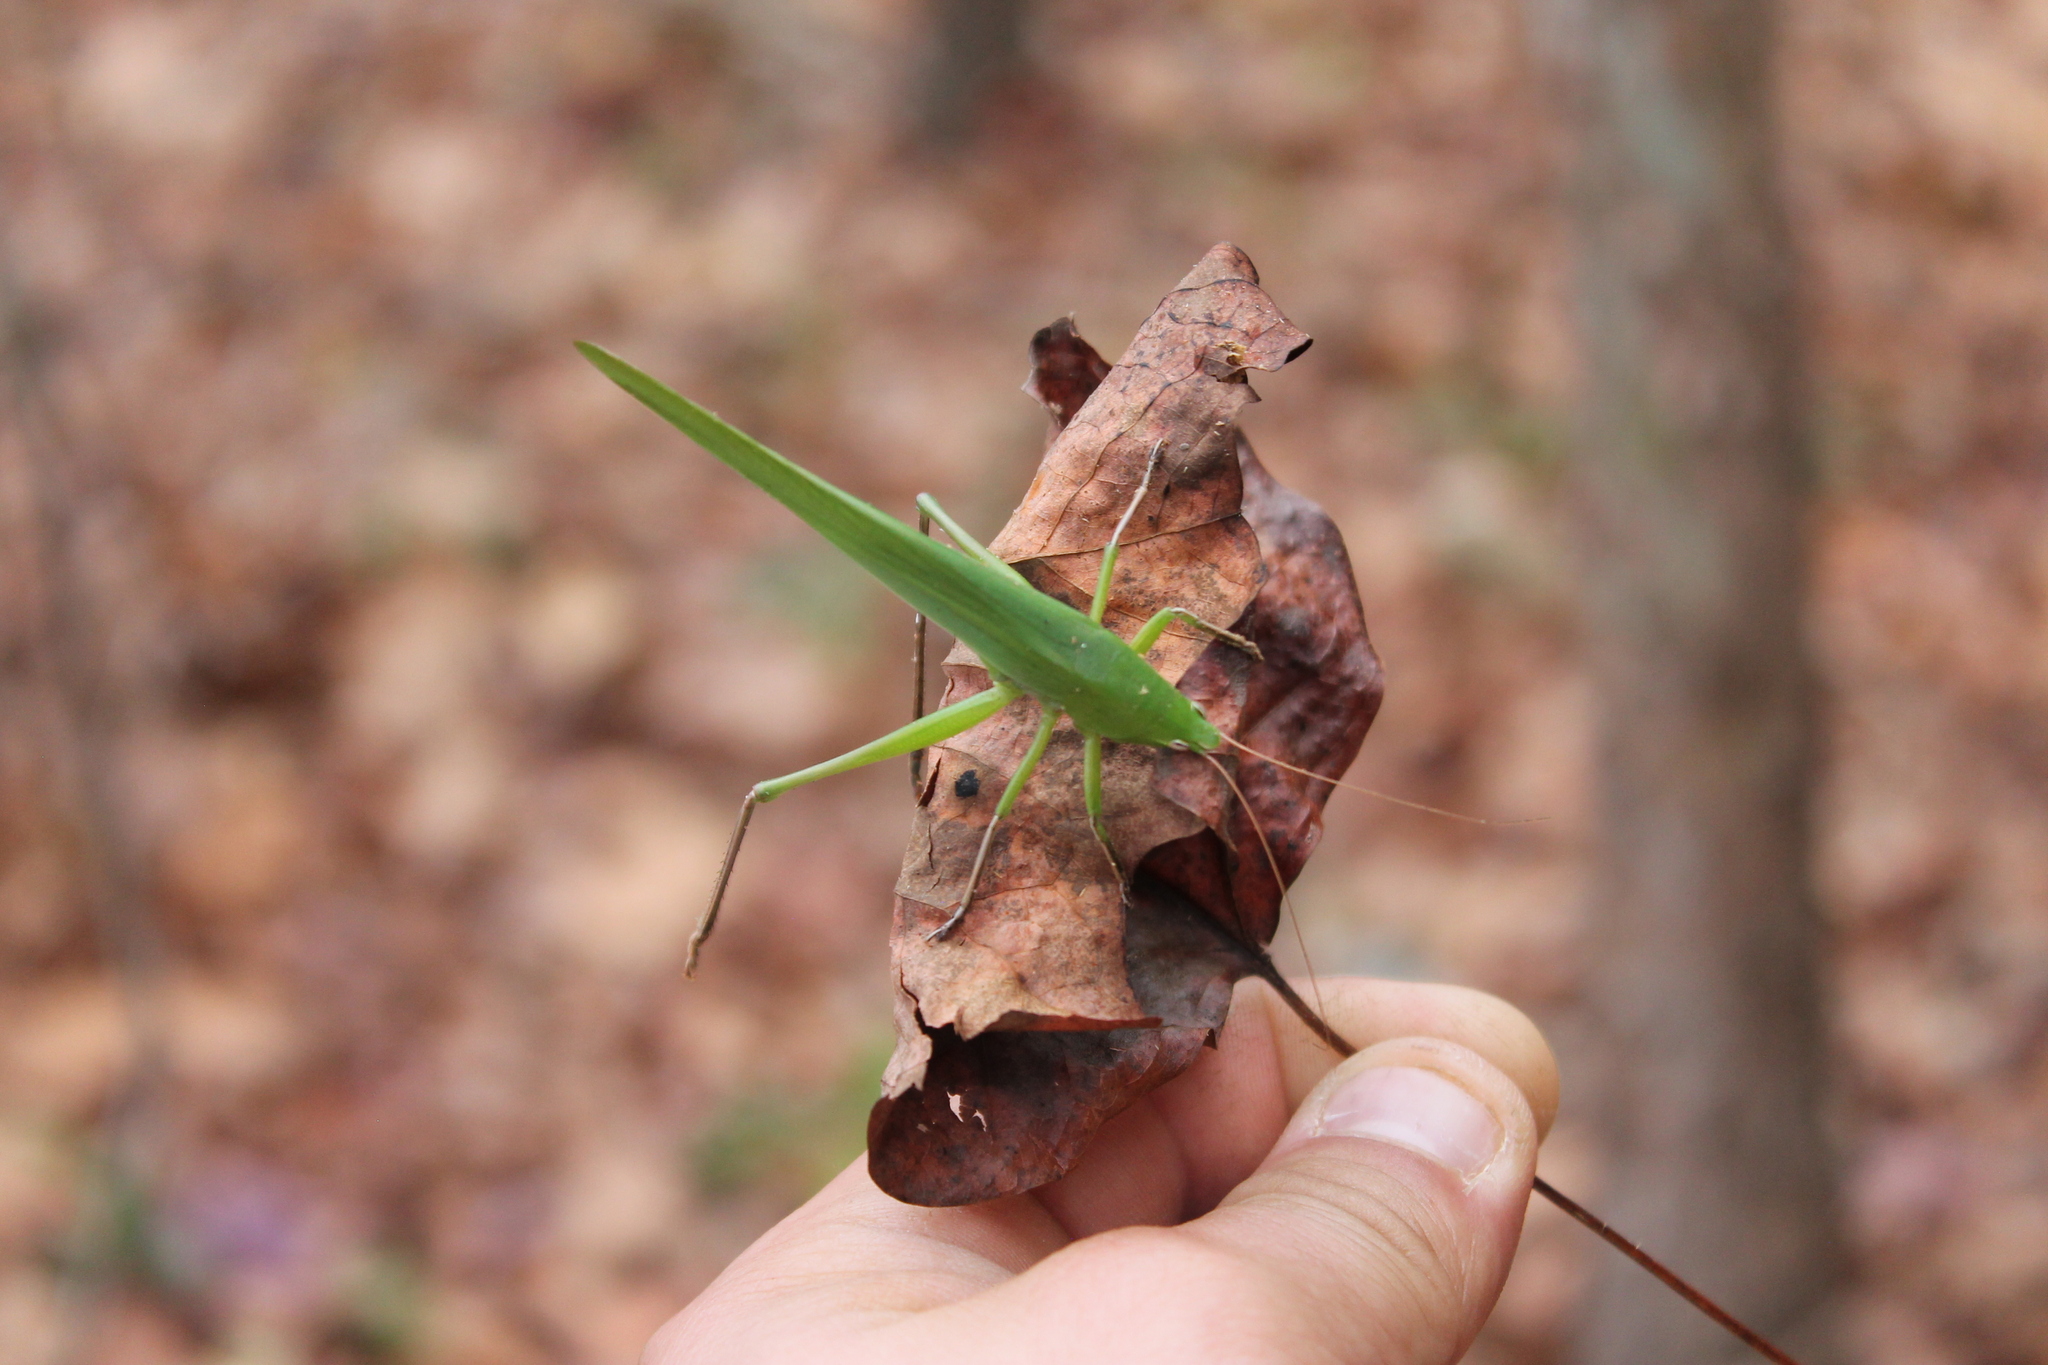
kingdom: Animalia
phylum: Arthropoda
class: Insecta
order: Orthoptera
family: Tettigoniidae
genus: Neoconocephalus
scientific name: Neoconocephalus triops
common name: Broad-tipped conehead
